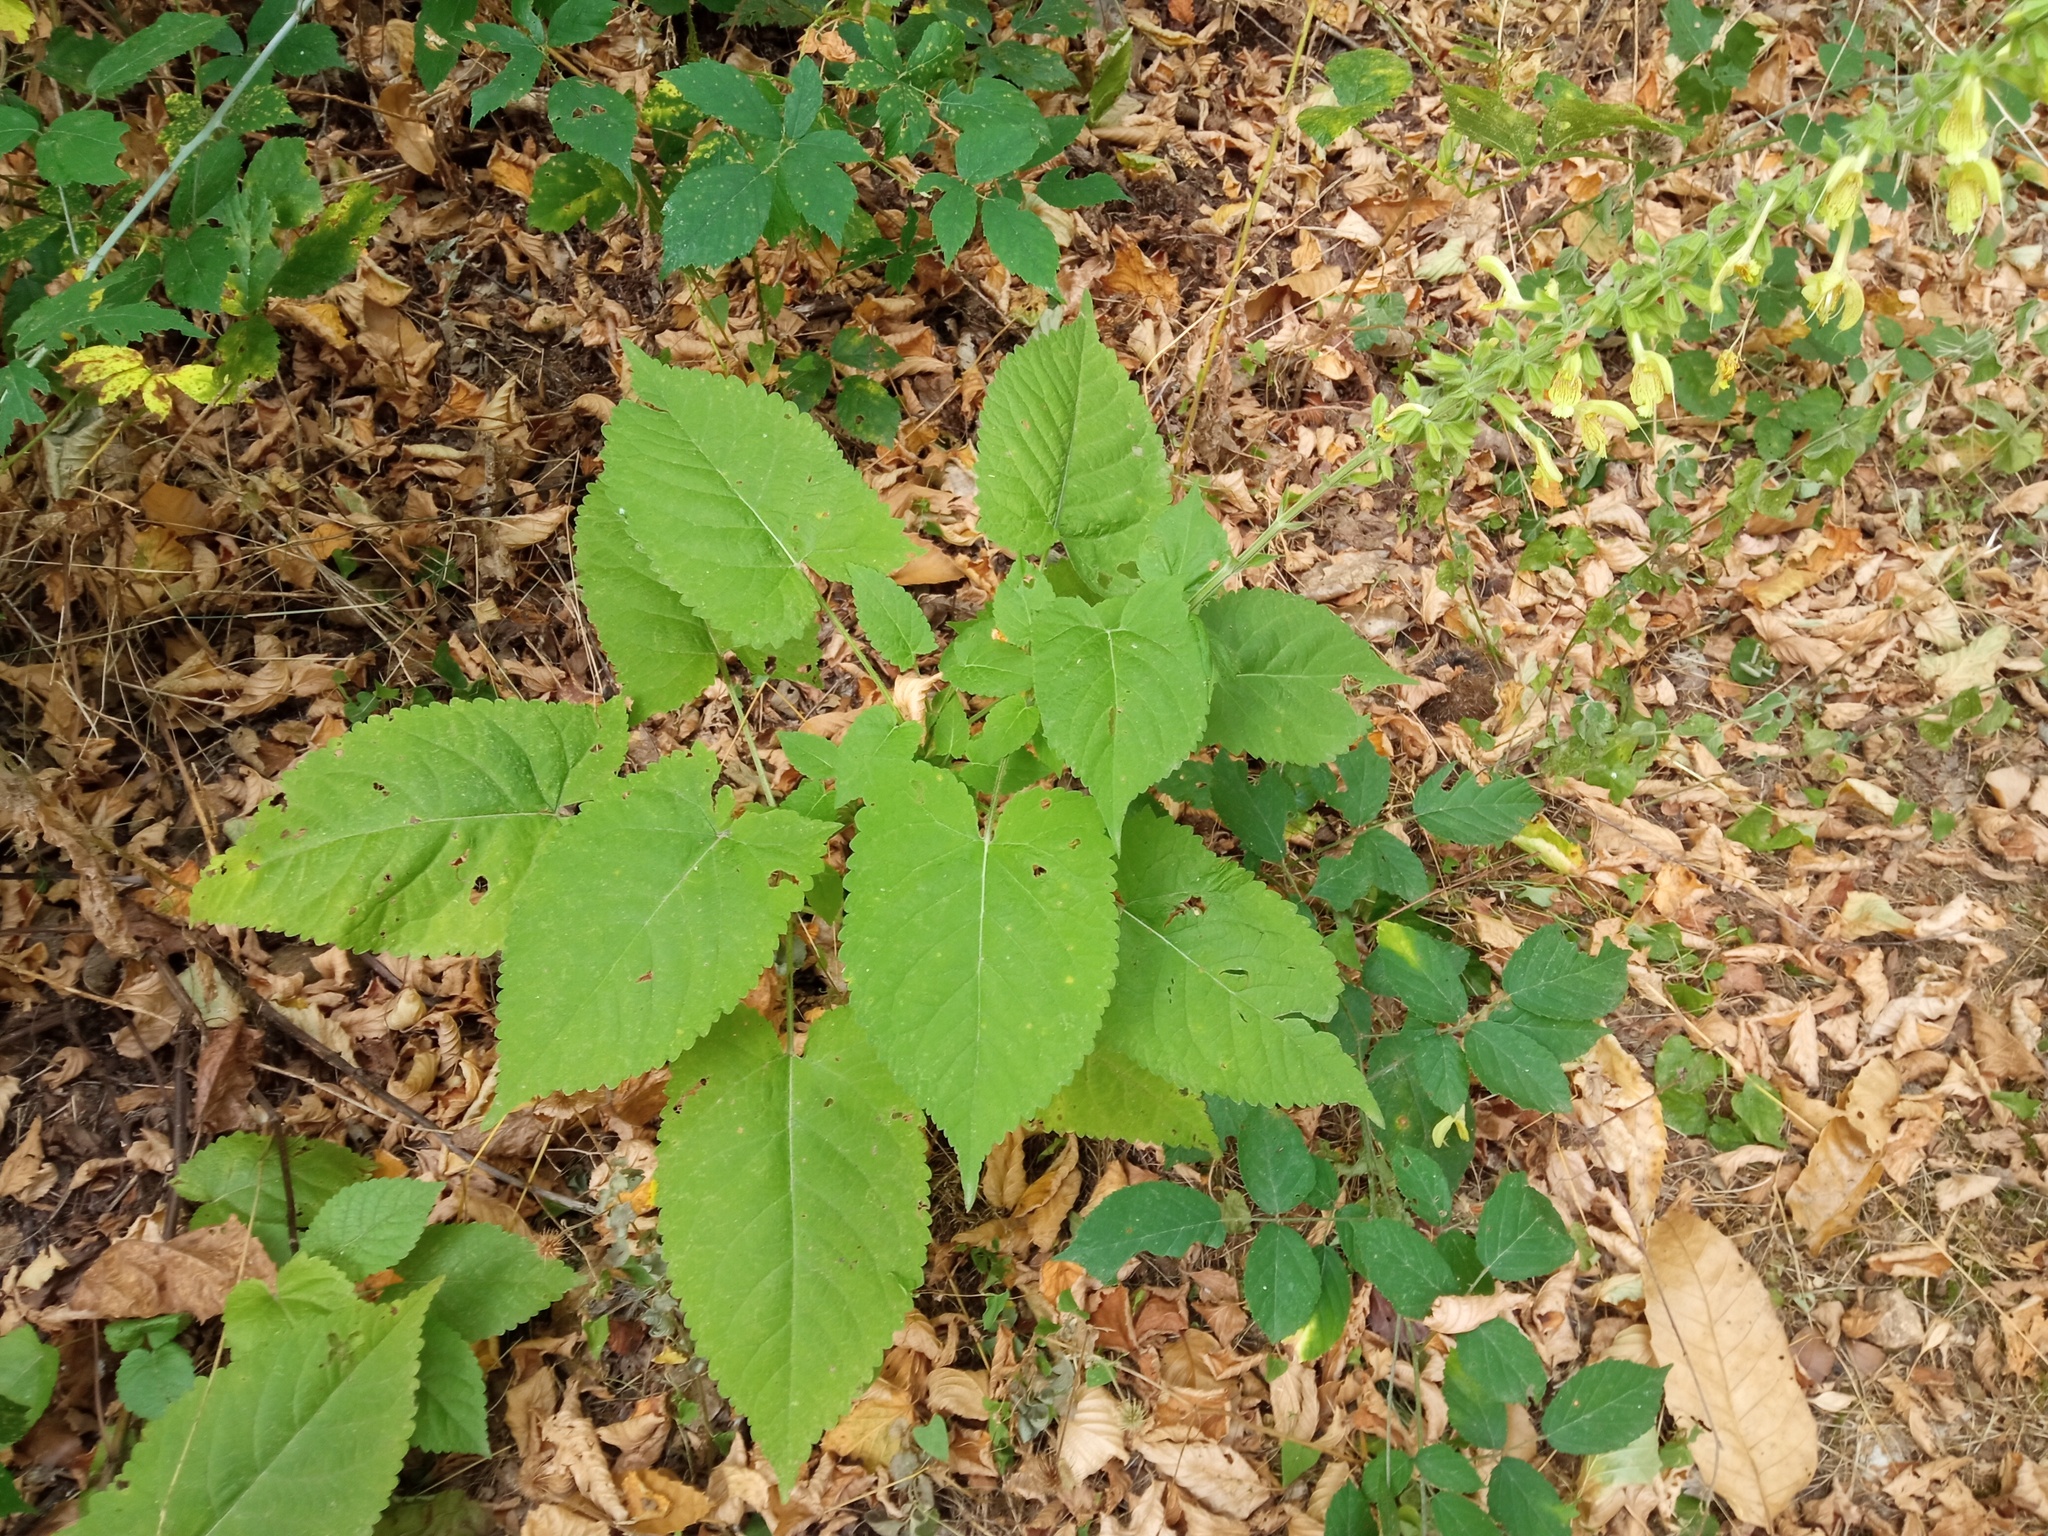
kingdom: Plantae
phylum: Tracheophyta
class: Magnoliopsida
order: Lamiales
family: Lamiaceae
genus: Salvia
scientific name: Salvia glutinosa
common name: Sticky clary
